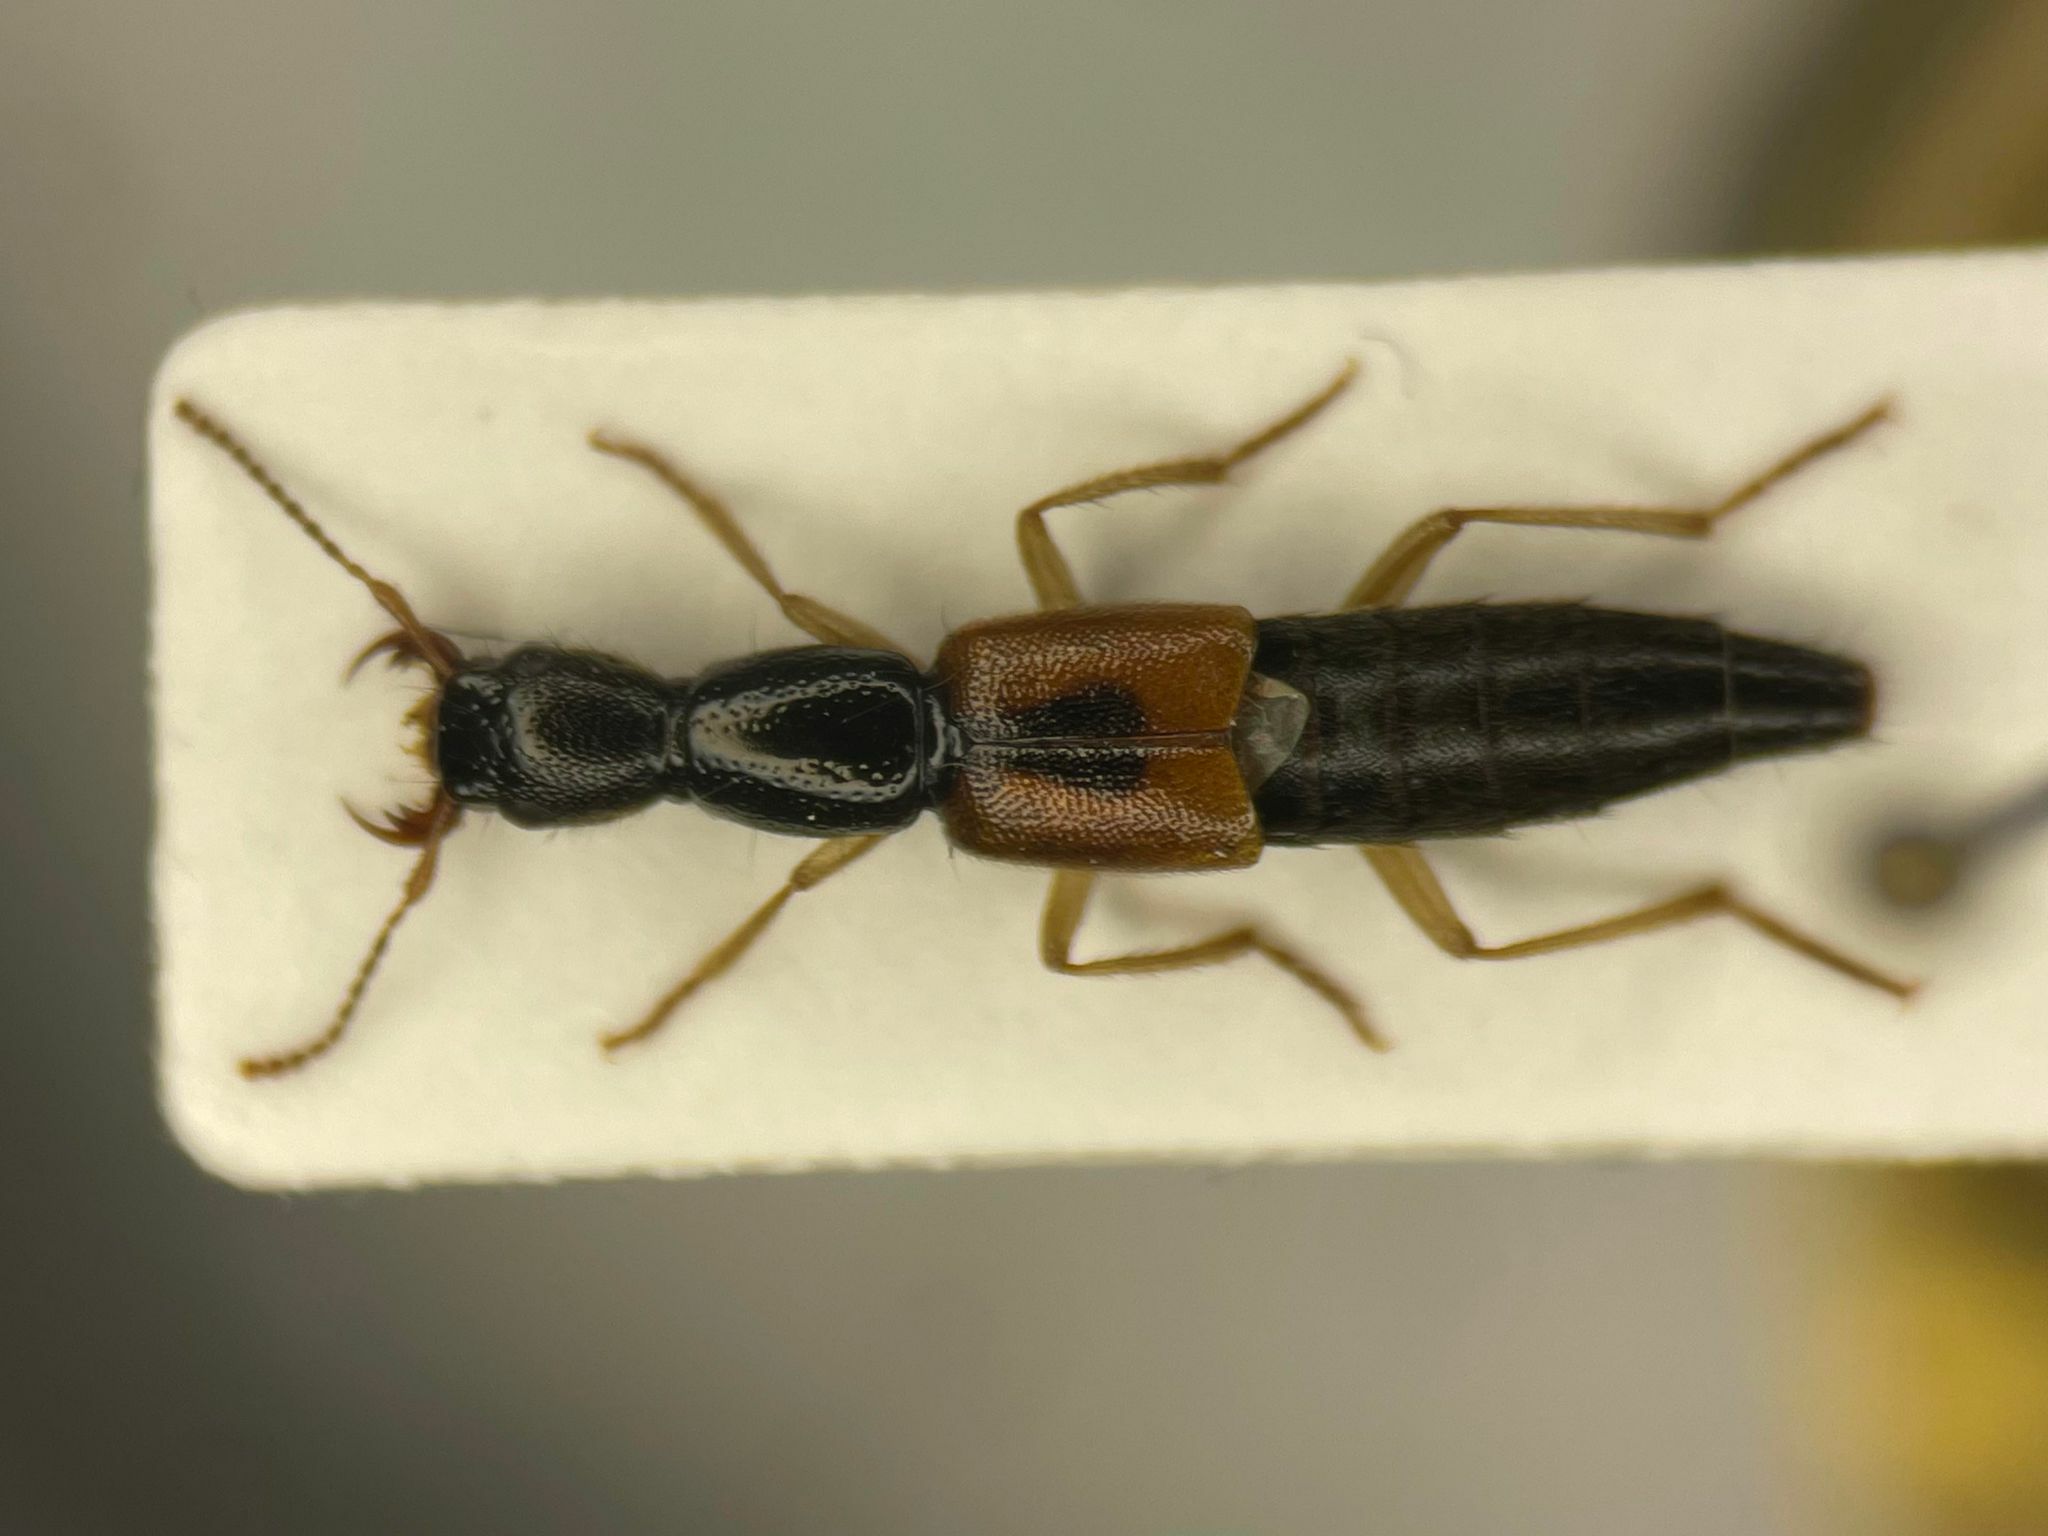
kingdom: Animalia
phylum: Arthropoda
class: Insecta
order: Coleoptera
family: Staphylinidae
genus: Homaeotarsus
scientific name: Homaeotarsus sellatus
